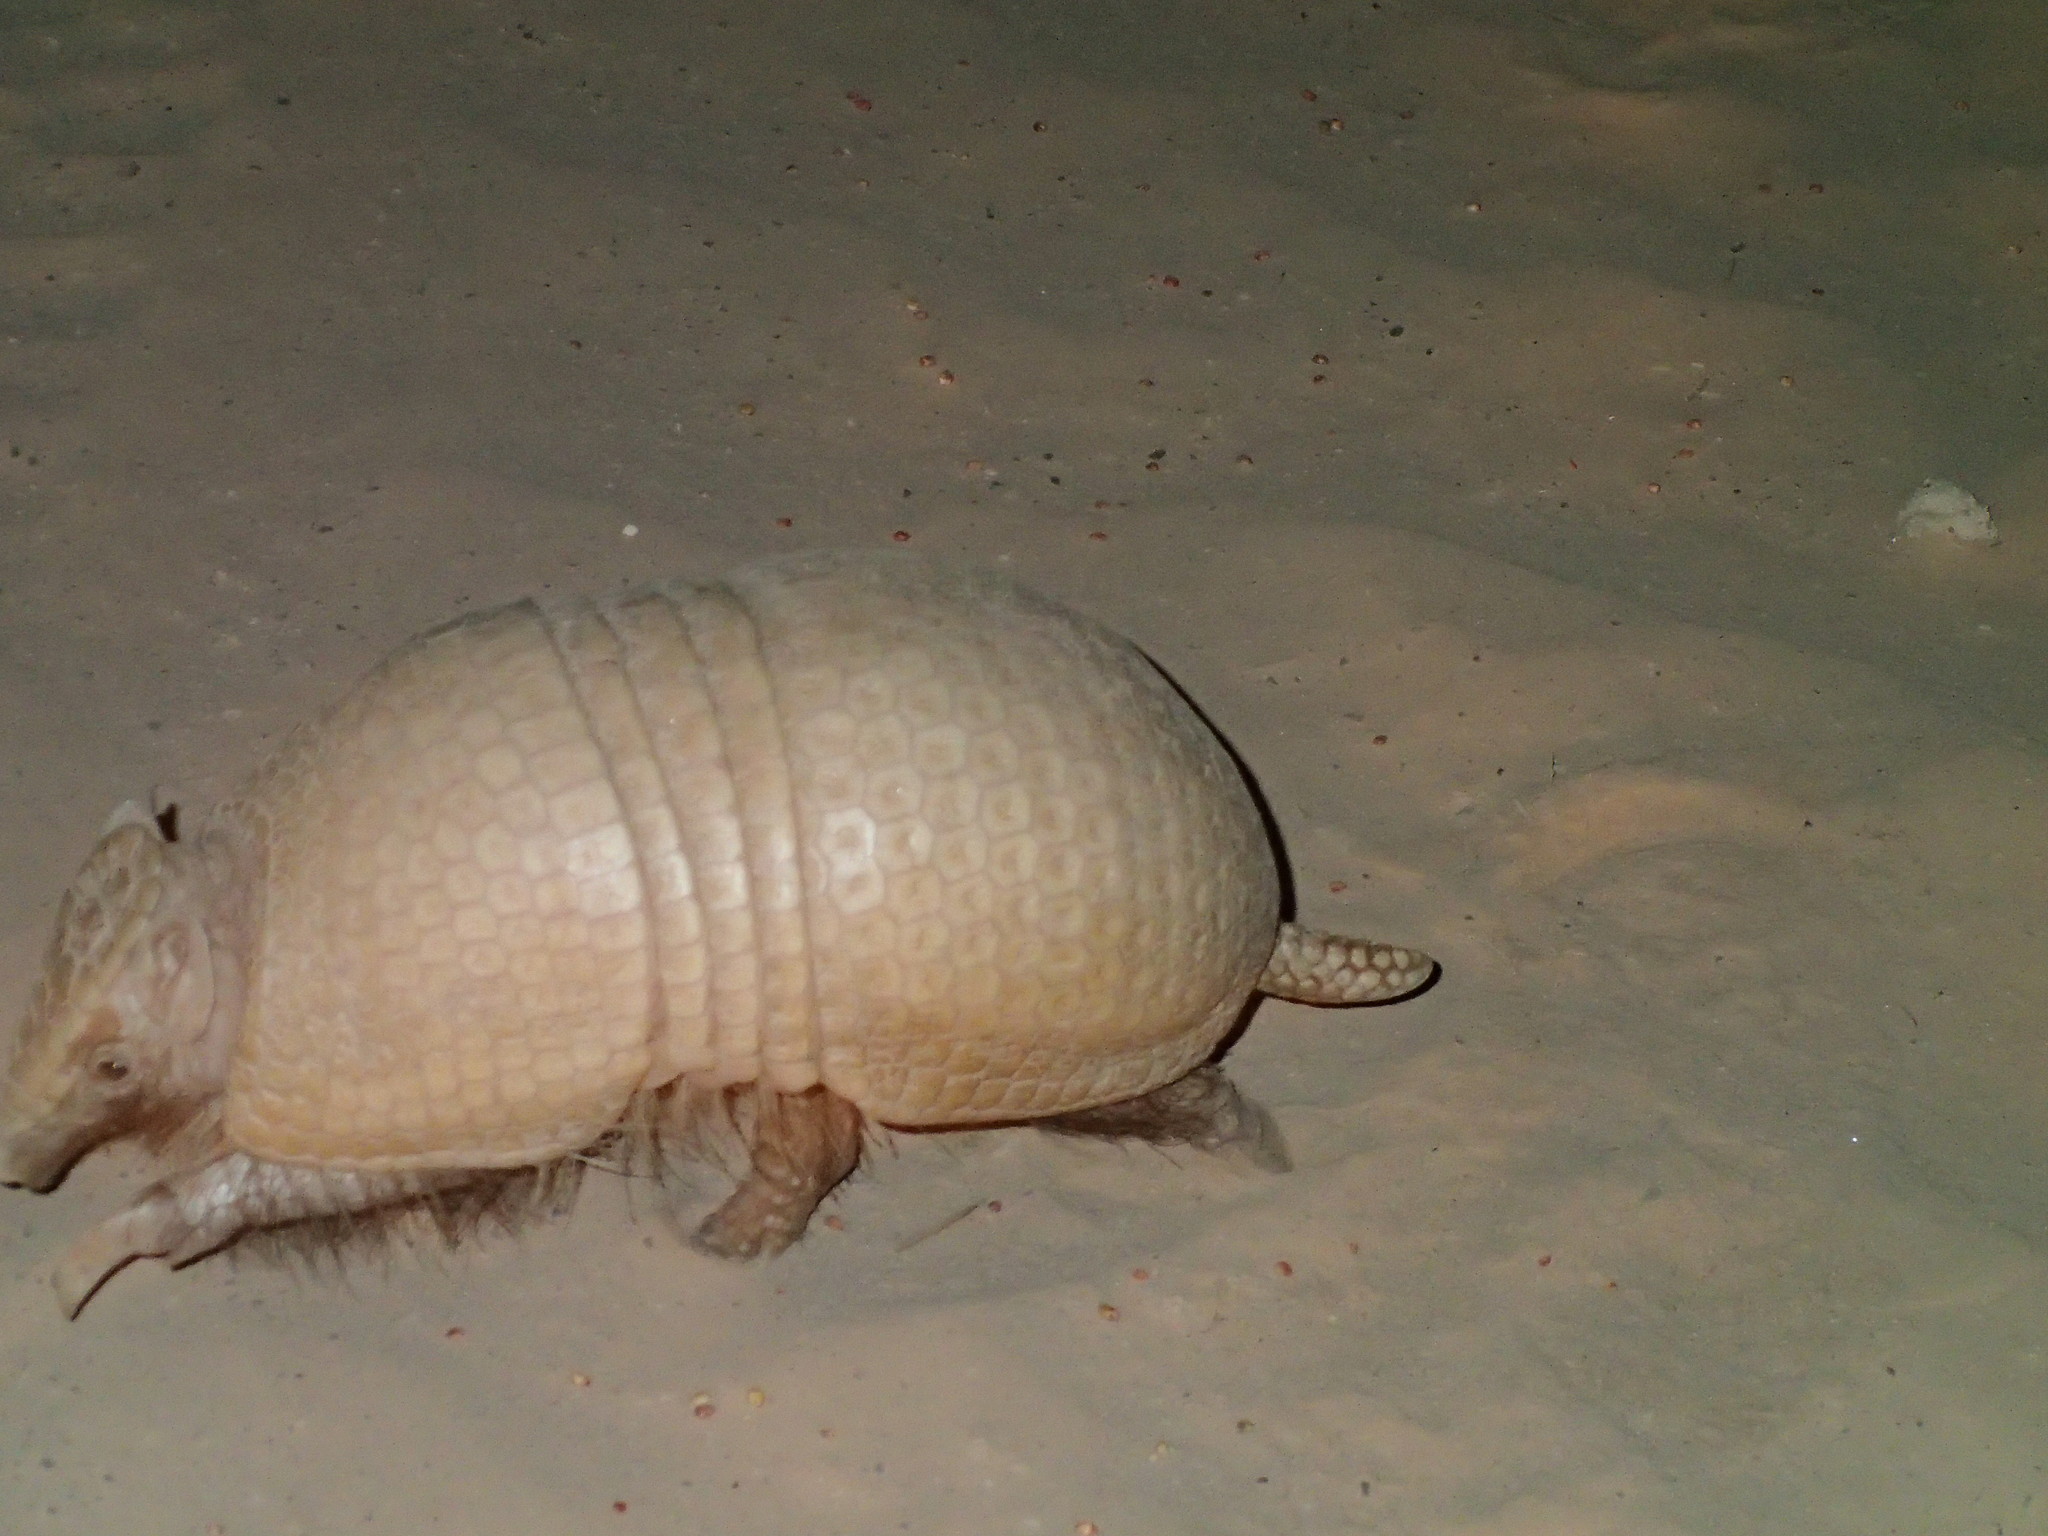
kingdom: Animalia
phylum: Chordata
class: Mammalia
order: Cingulata
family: Dasypodidae
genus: Tolypeutes
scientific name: Tolypeutes matacus
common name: Southern three-banded armadillo
